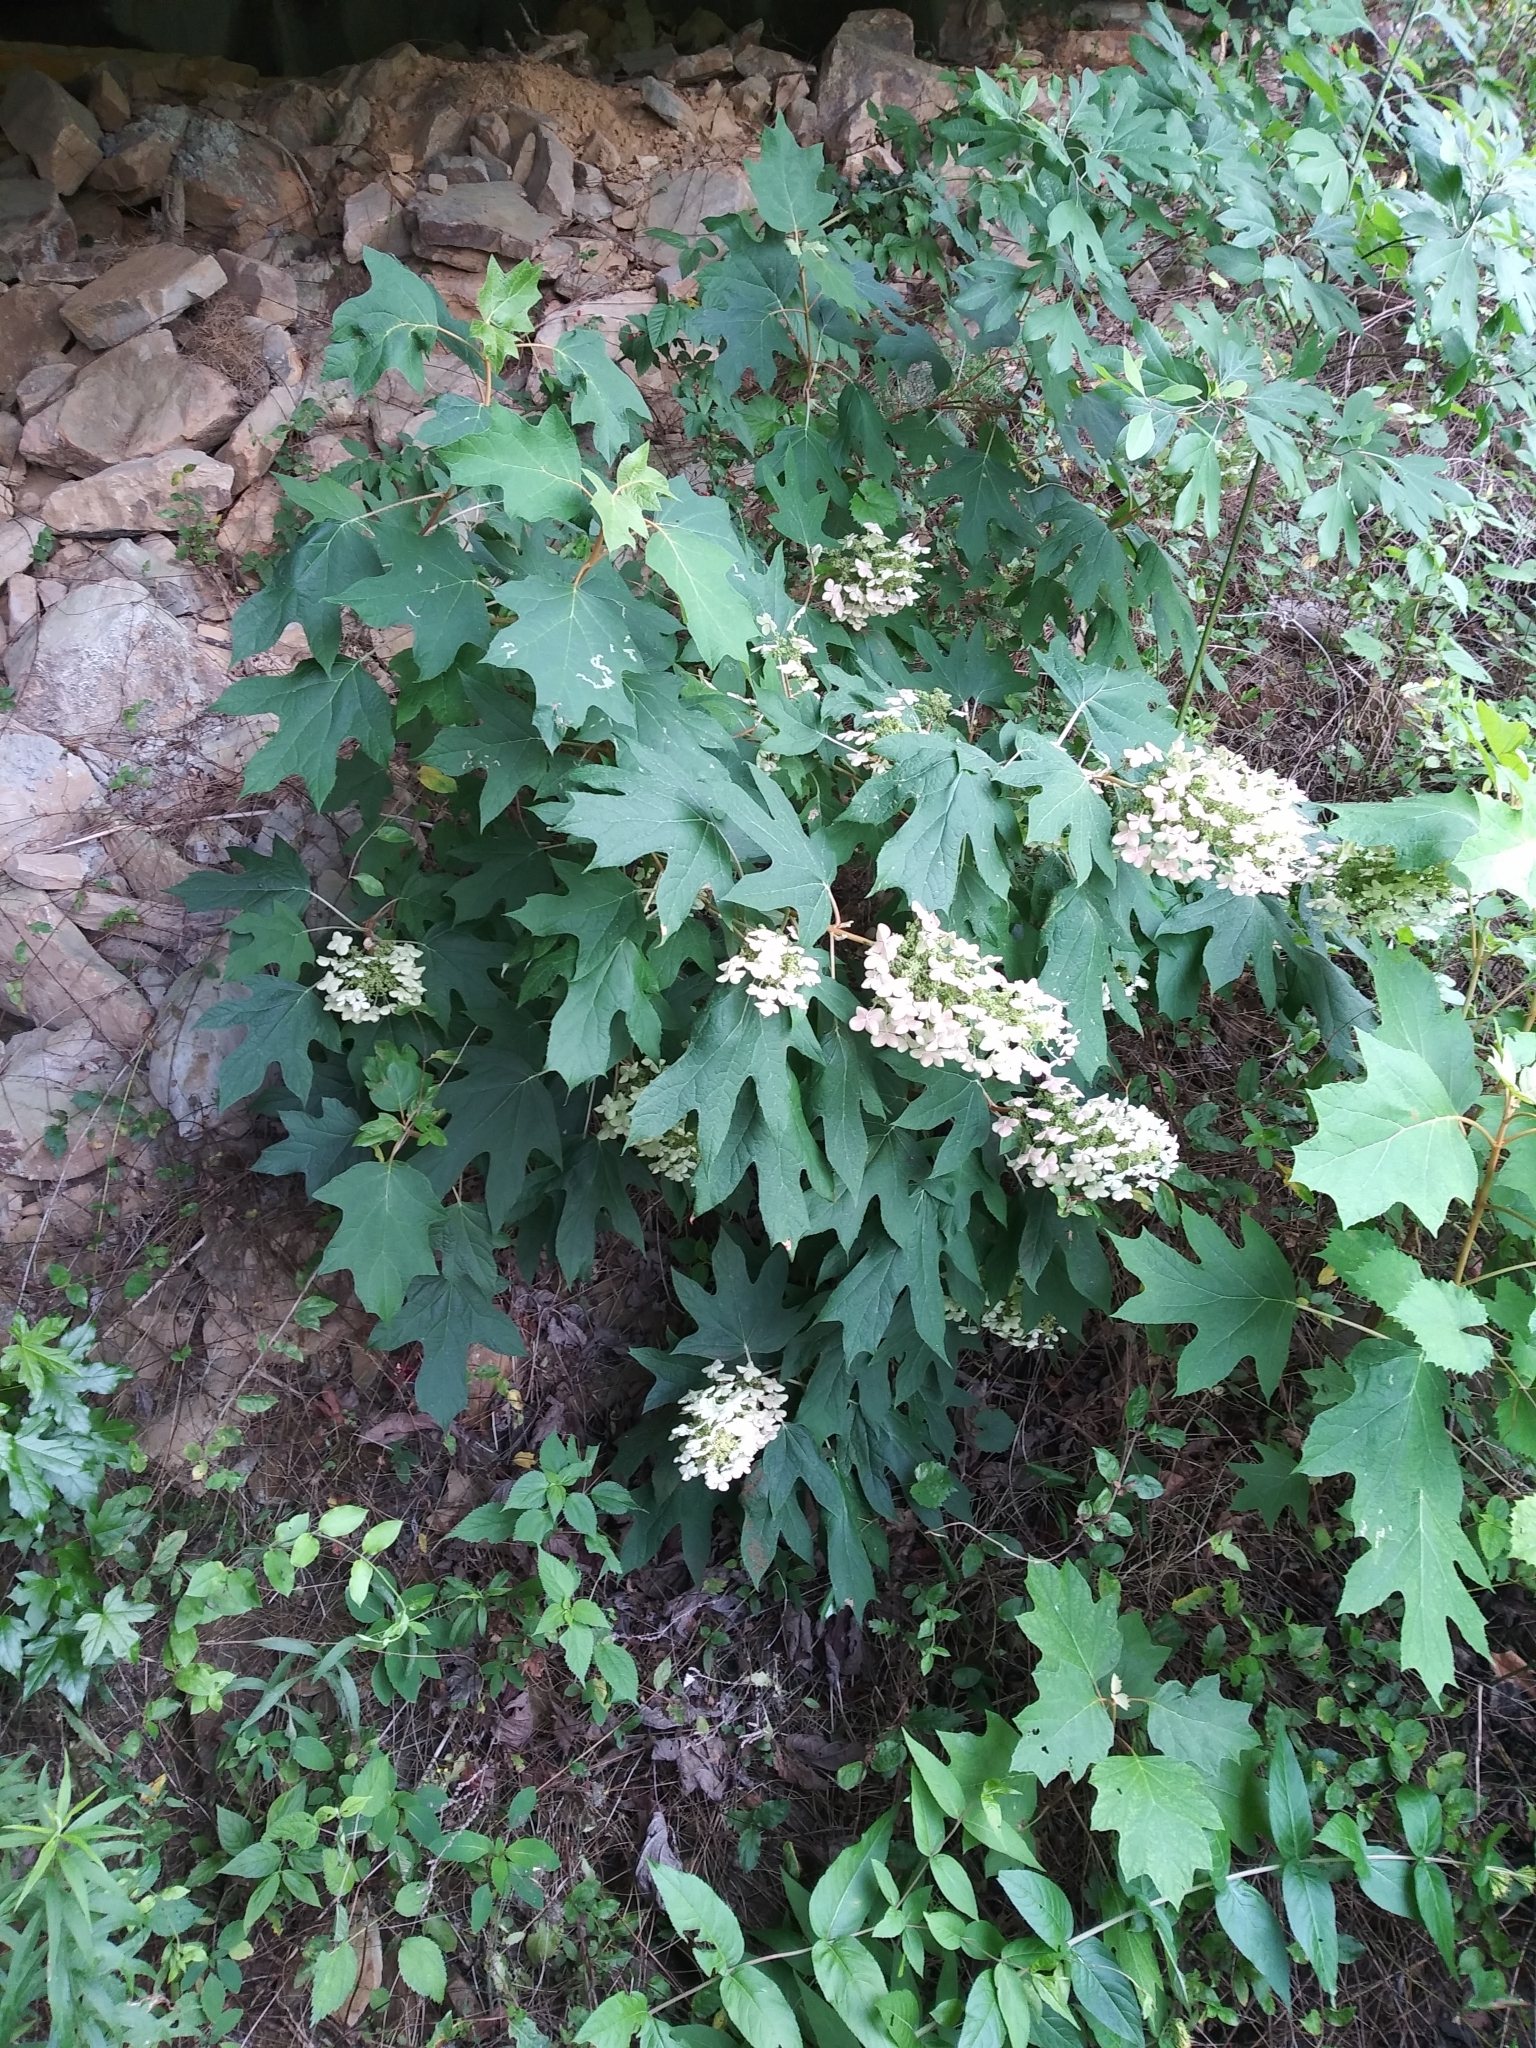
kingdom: Plantae
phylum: Tracheophyta
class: Magnoliopsida
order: Cornales
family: Hydrangeaceae
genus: Hydrangea
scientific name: Hydrangea quercifolia
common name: Oak-leaf hydrangea
